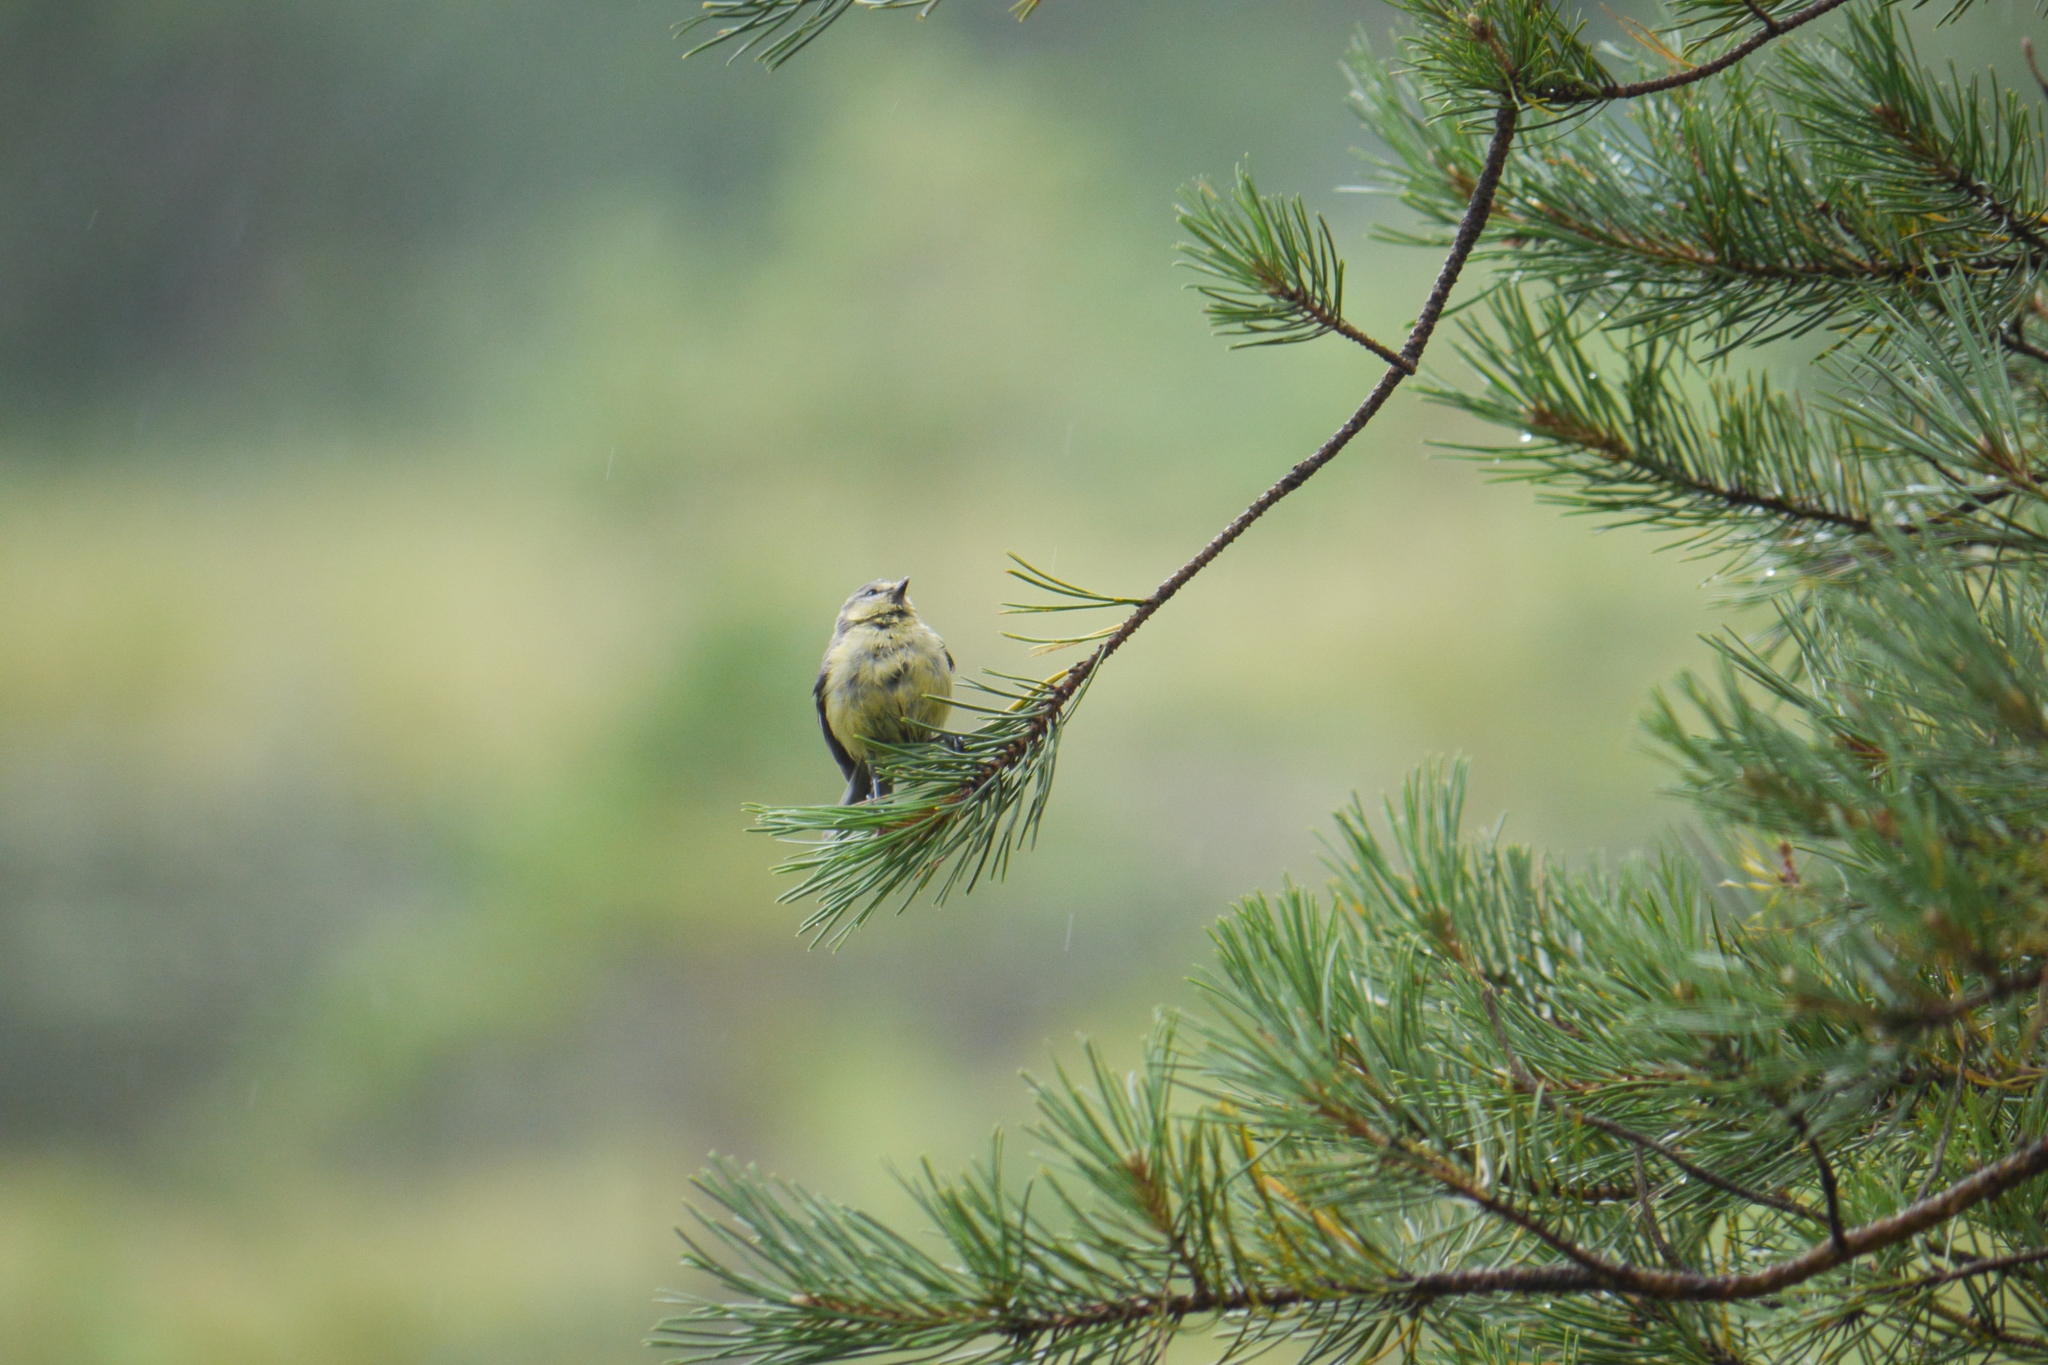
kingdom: Animalia
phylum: Chordata
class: Aves
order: Passeriformes
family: Paridae
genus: Cyanistes
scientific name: Cyanistes caeruleus
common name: Eurasian blue tit
